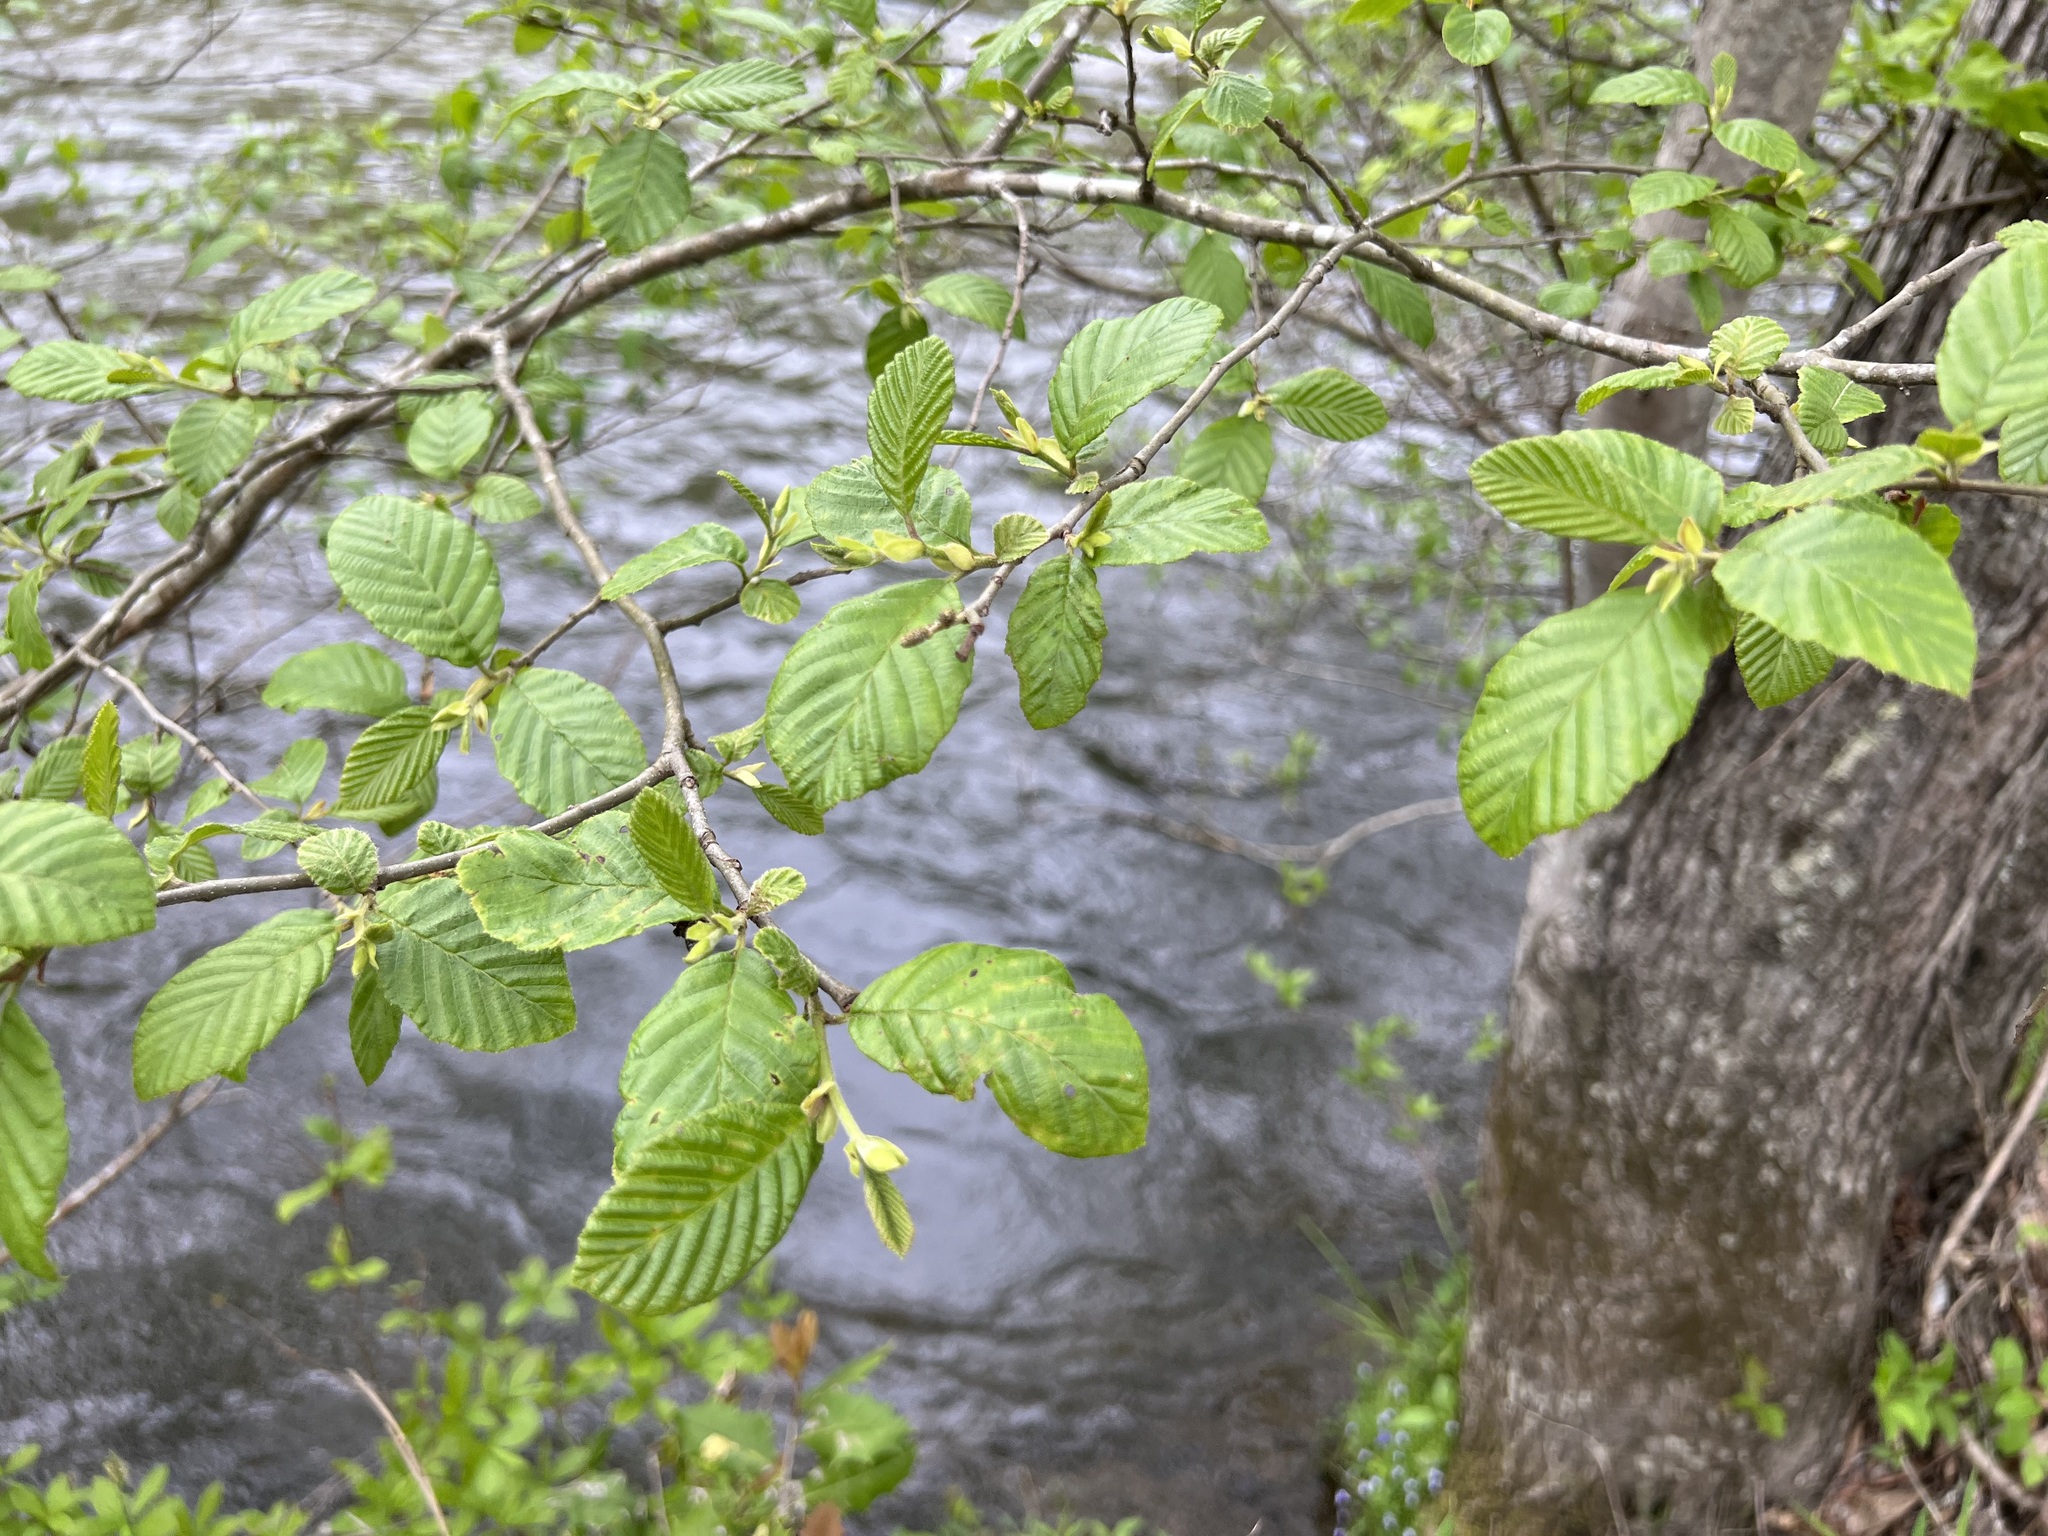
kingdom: Plantae
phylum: Tracheophyta
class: Magnoliopsida
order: Fagales
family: Betulaceae
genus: Alnus
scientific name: Alnus serrulata
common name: Hazel alder
